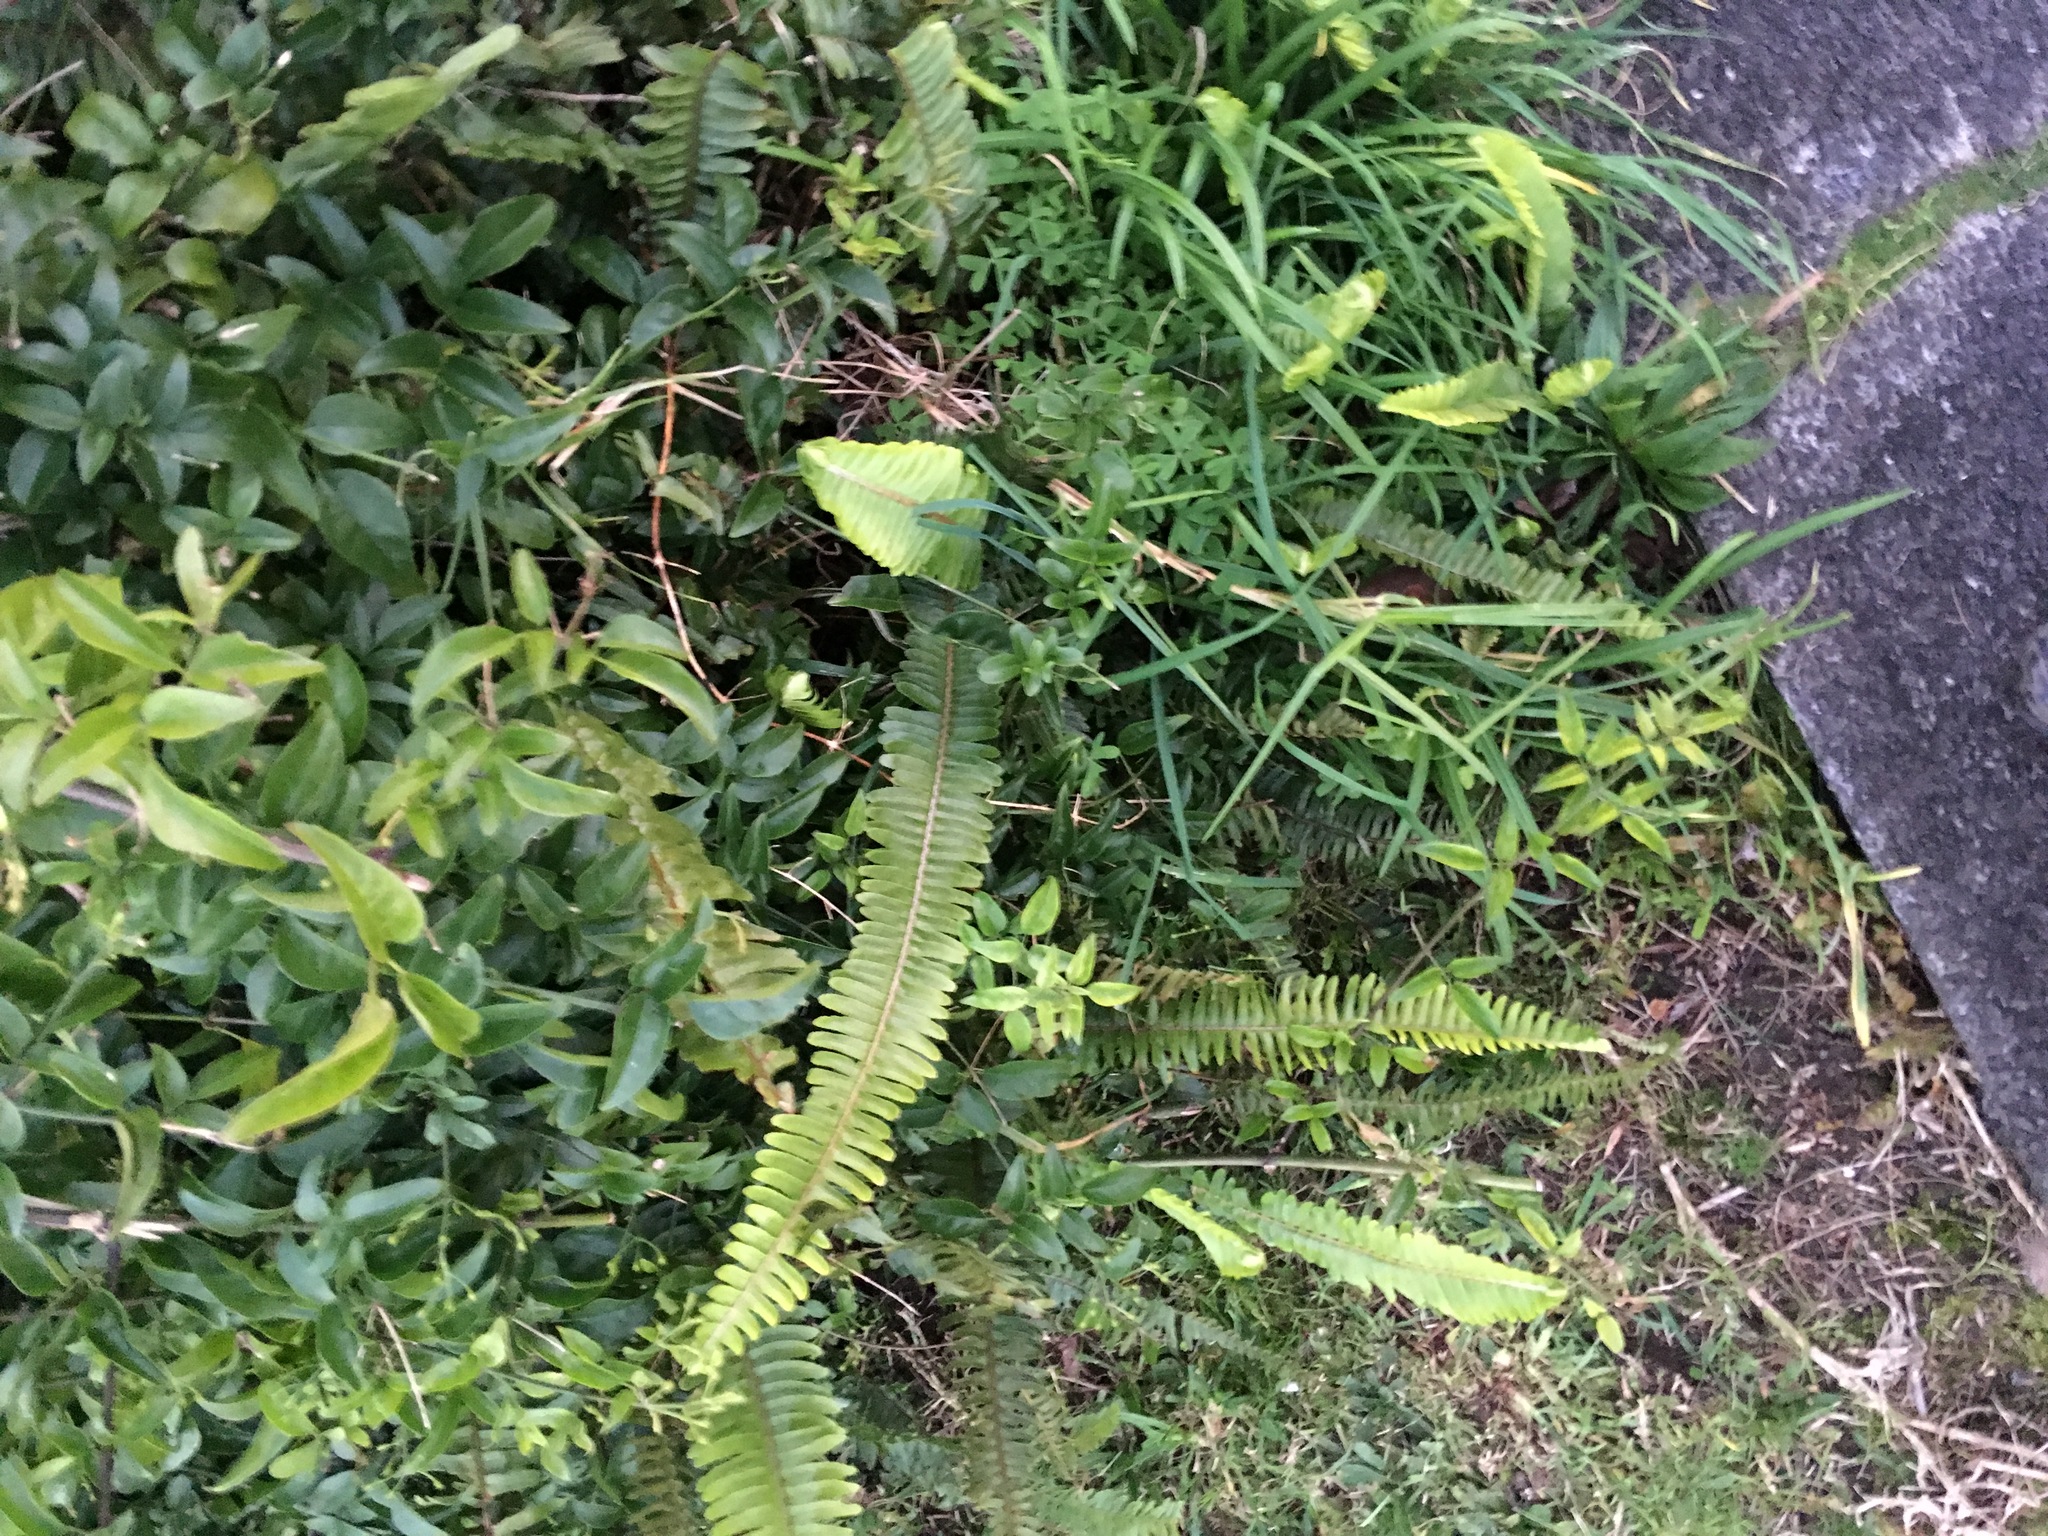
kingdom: Plantae
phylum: Tracheophyta
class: Polypodiopsida
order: Polypodiales
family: Nephrolepidaceae
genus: Nephrolepis
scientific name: Nephrolepis cordifolia
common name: Narrow swordfern
